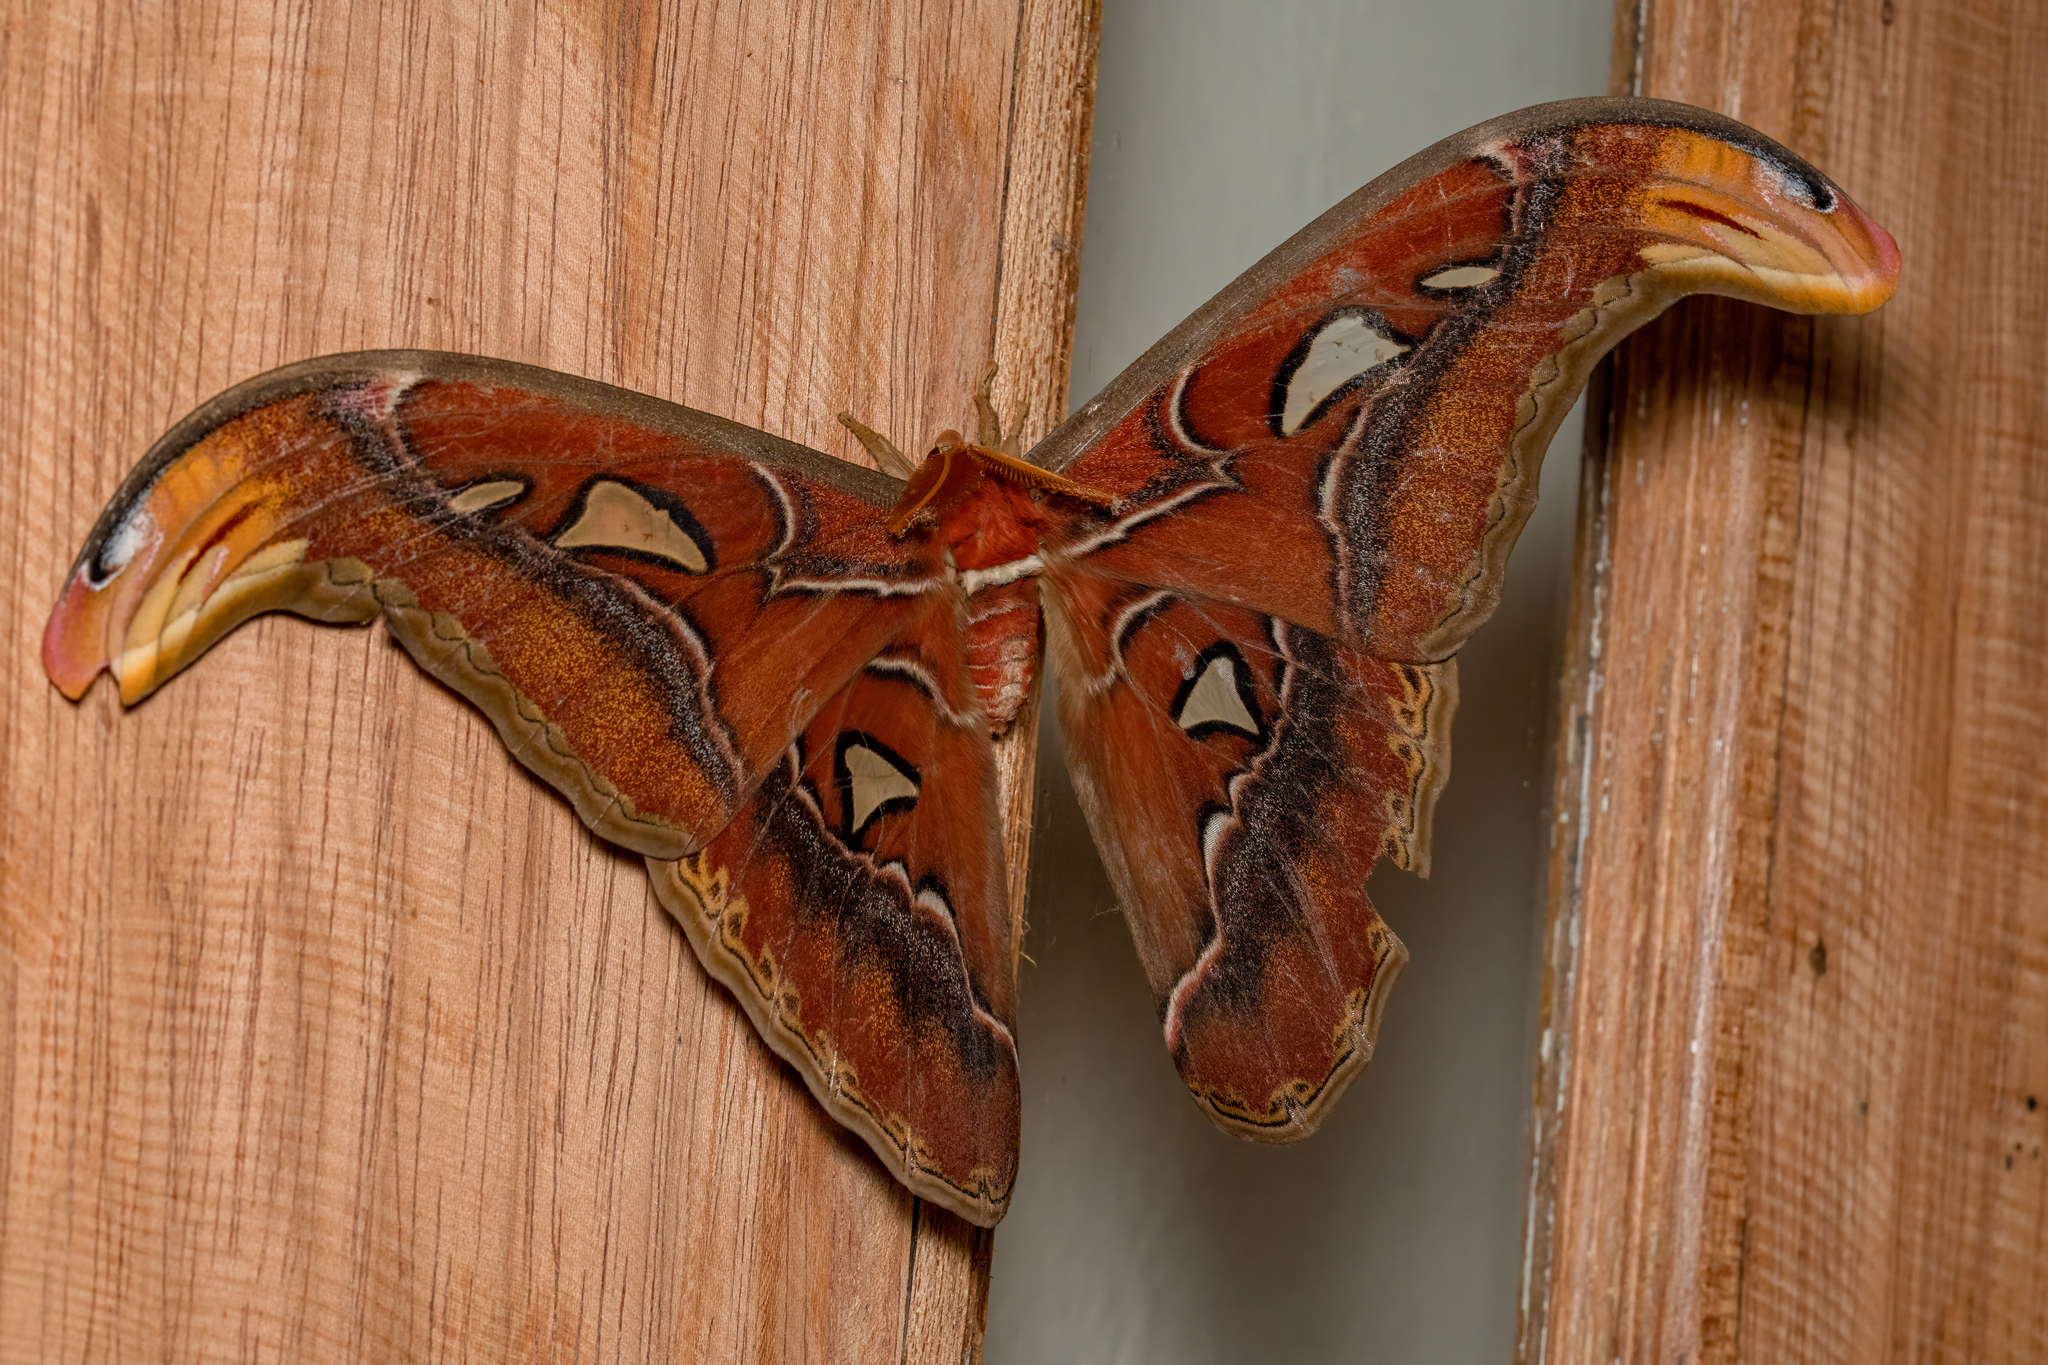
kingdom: Animalia
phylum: Arthropoda
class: Insecta
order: Lepidoptera
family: Saturniidae
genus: Attacus
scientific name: Attacus atlas
